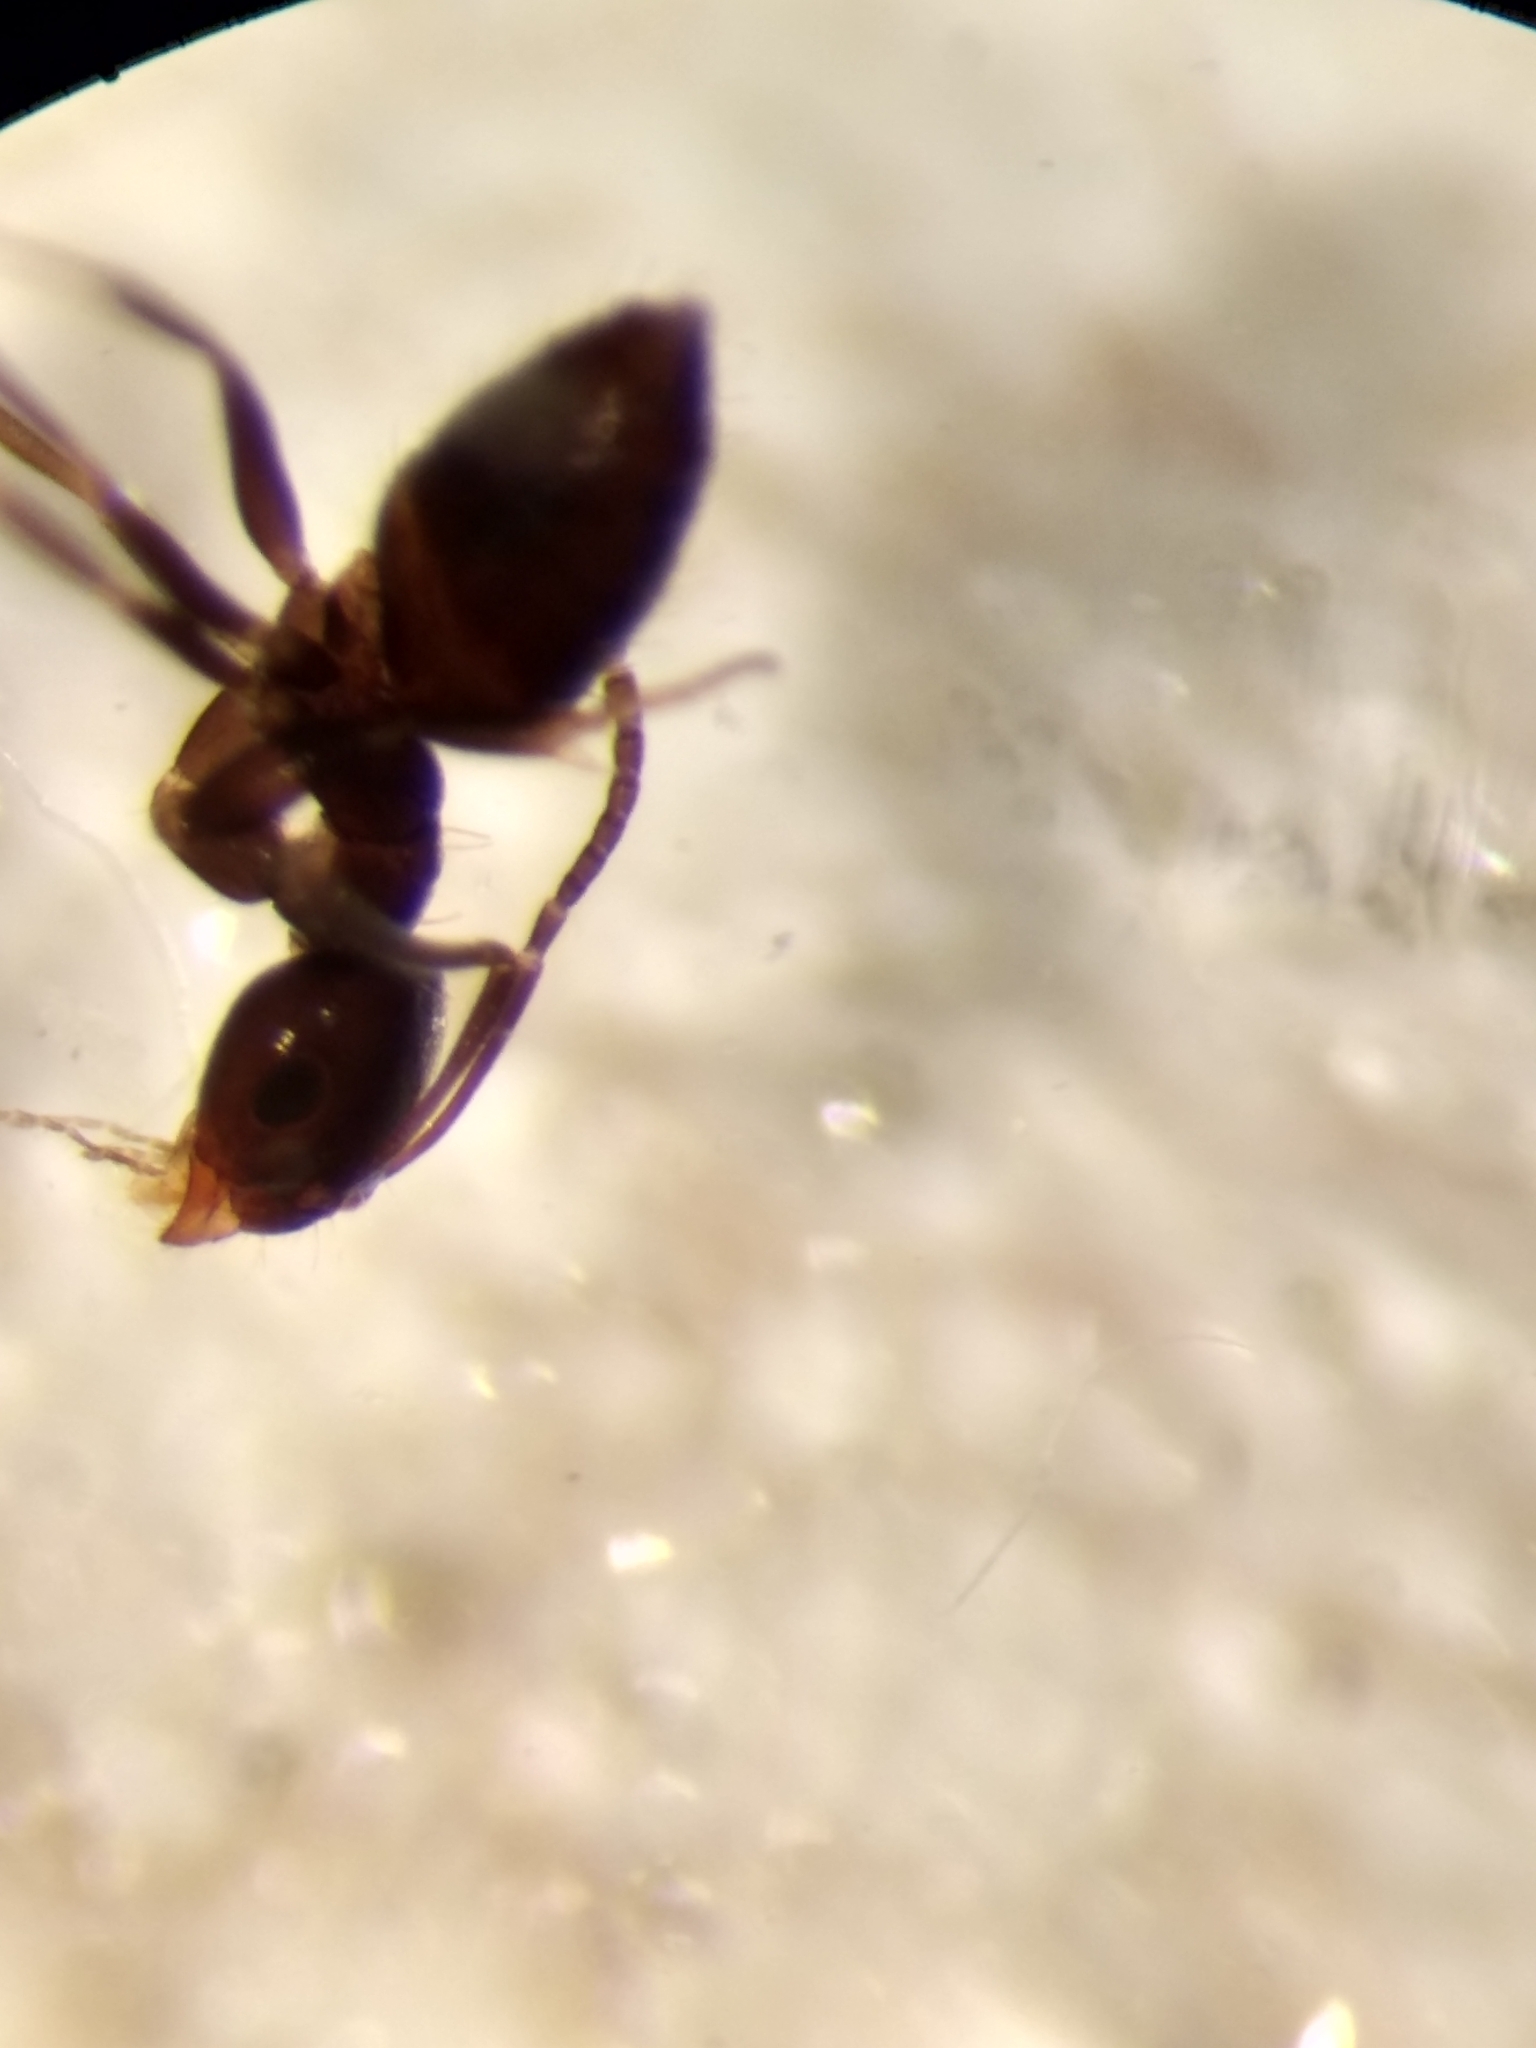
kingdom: Animalia
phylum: Arthropoda
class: Insecta
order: Hymenoptera
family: Formicidae
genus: Brachymyrmex
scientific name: Brachymyrmex patagonicus
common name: Dark rover ant
